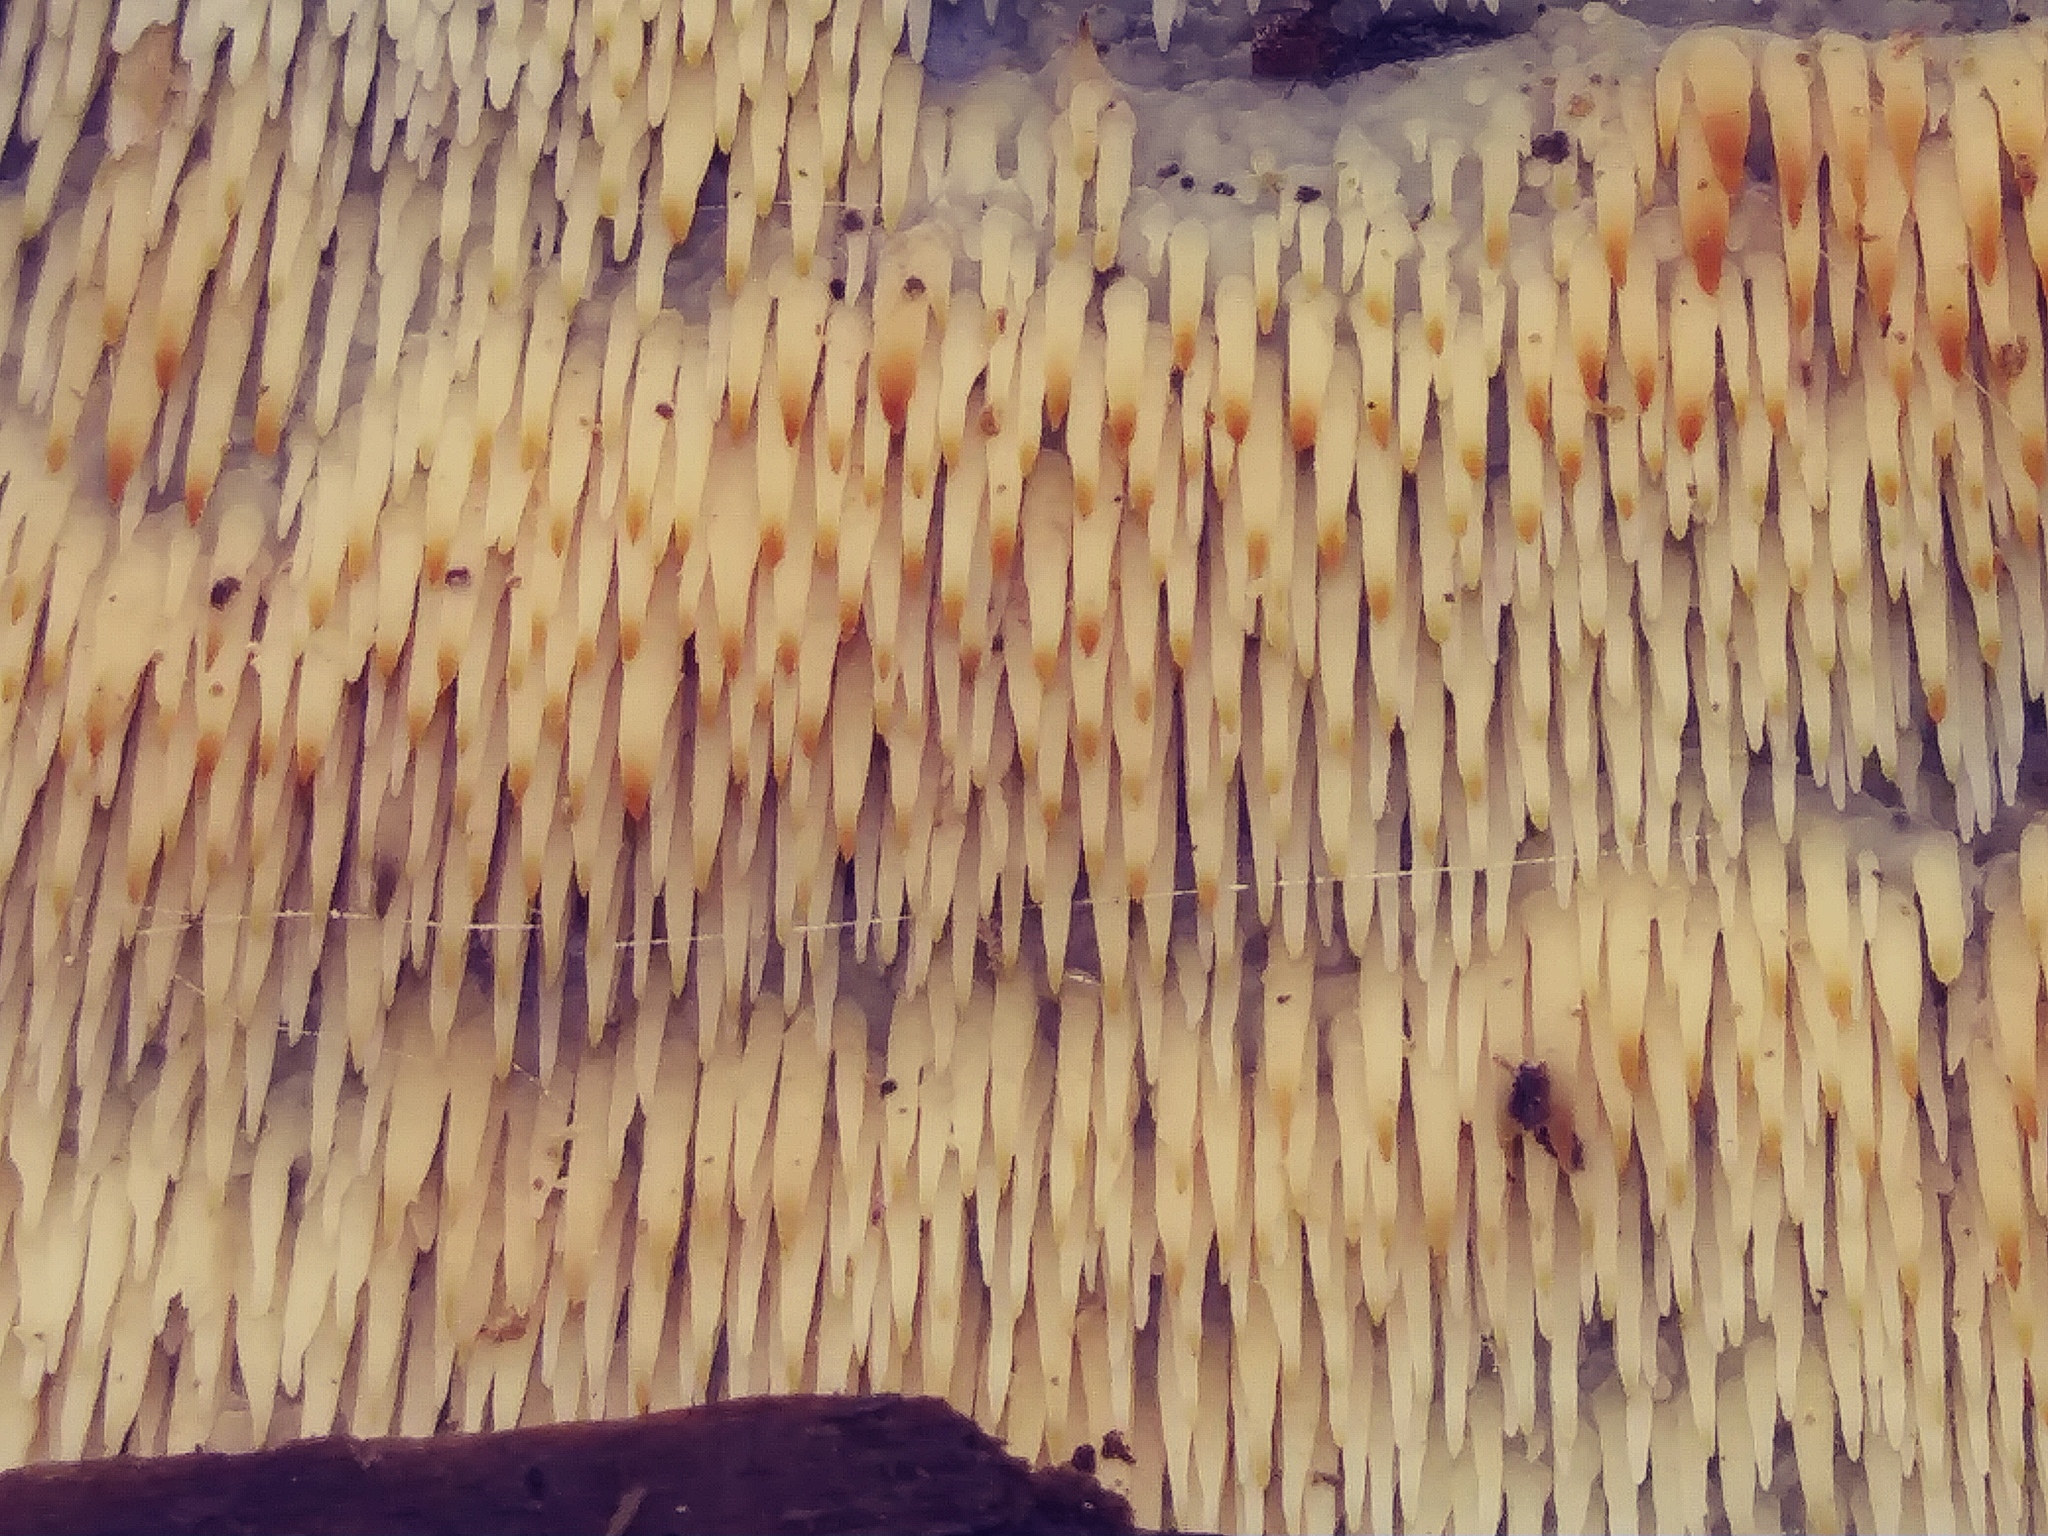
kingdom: Animalia
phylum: Arthropoda
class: Insecta
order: Diptera
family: Cecidomyiidae
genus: Acericecis
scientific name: Acericecis ocellaris
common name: Ocellate gall midge
